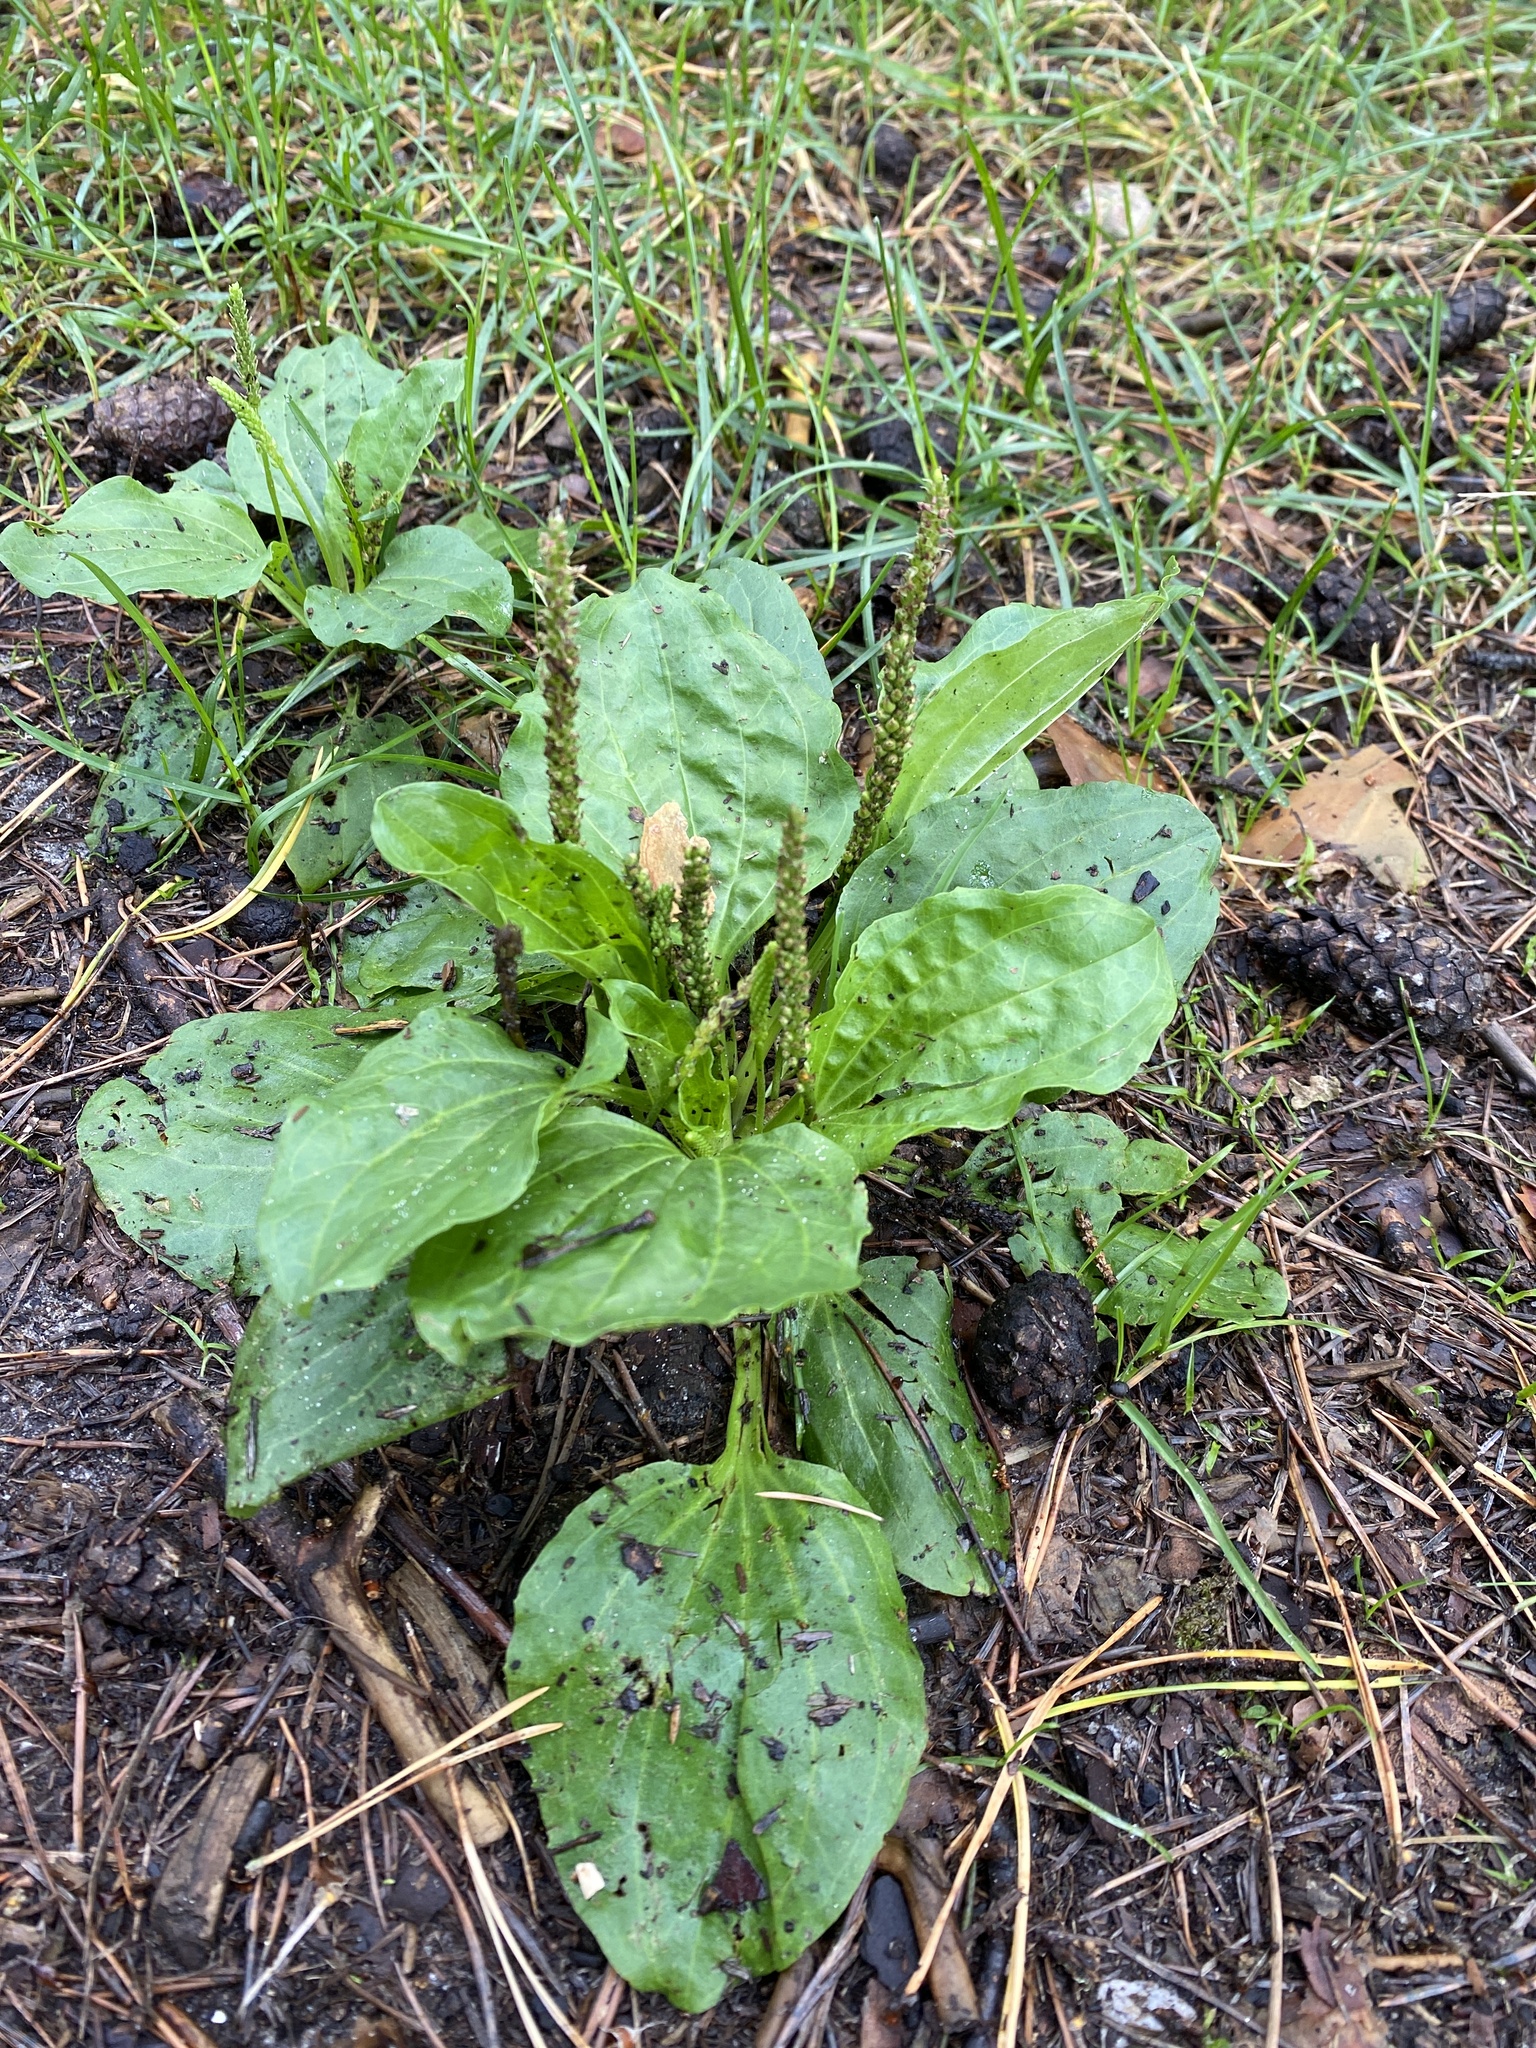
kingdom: Plantae
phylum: Tracheophyta
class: Magnoliopsida
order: Lamiales
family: Plantaginaceae
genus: Plantago
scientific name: Plantago major
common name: Common plantain
